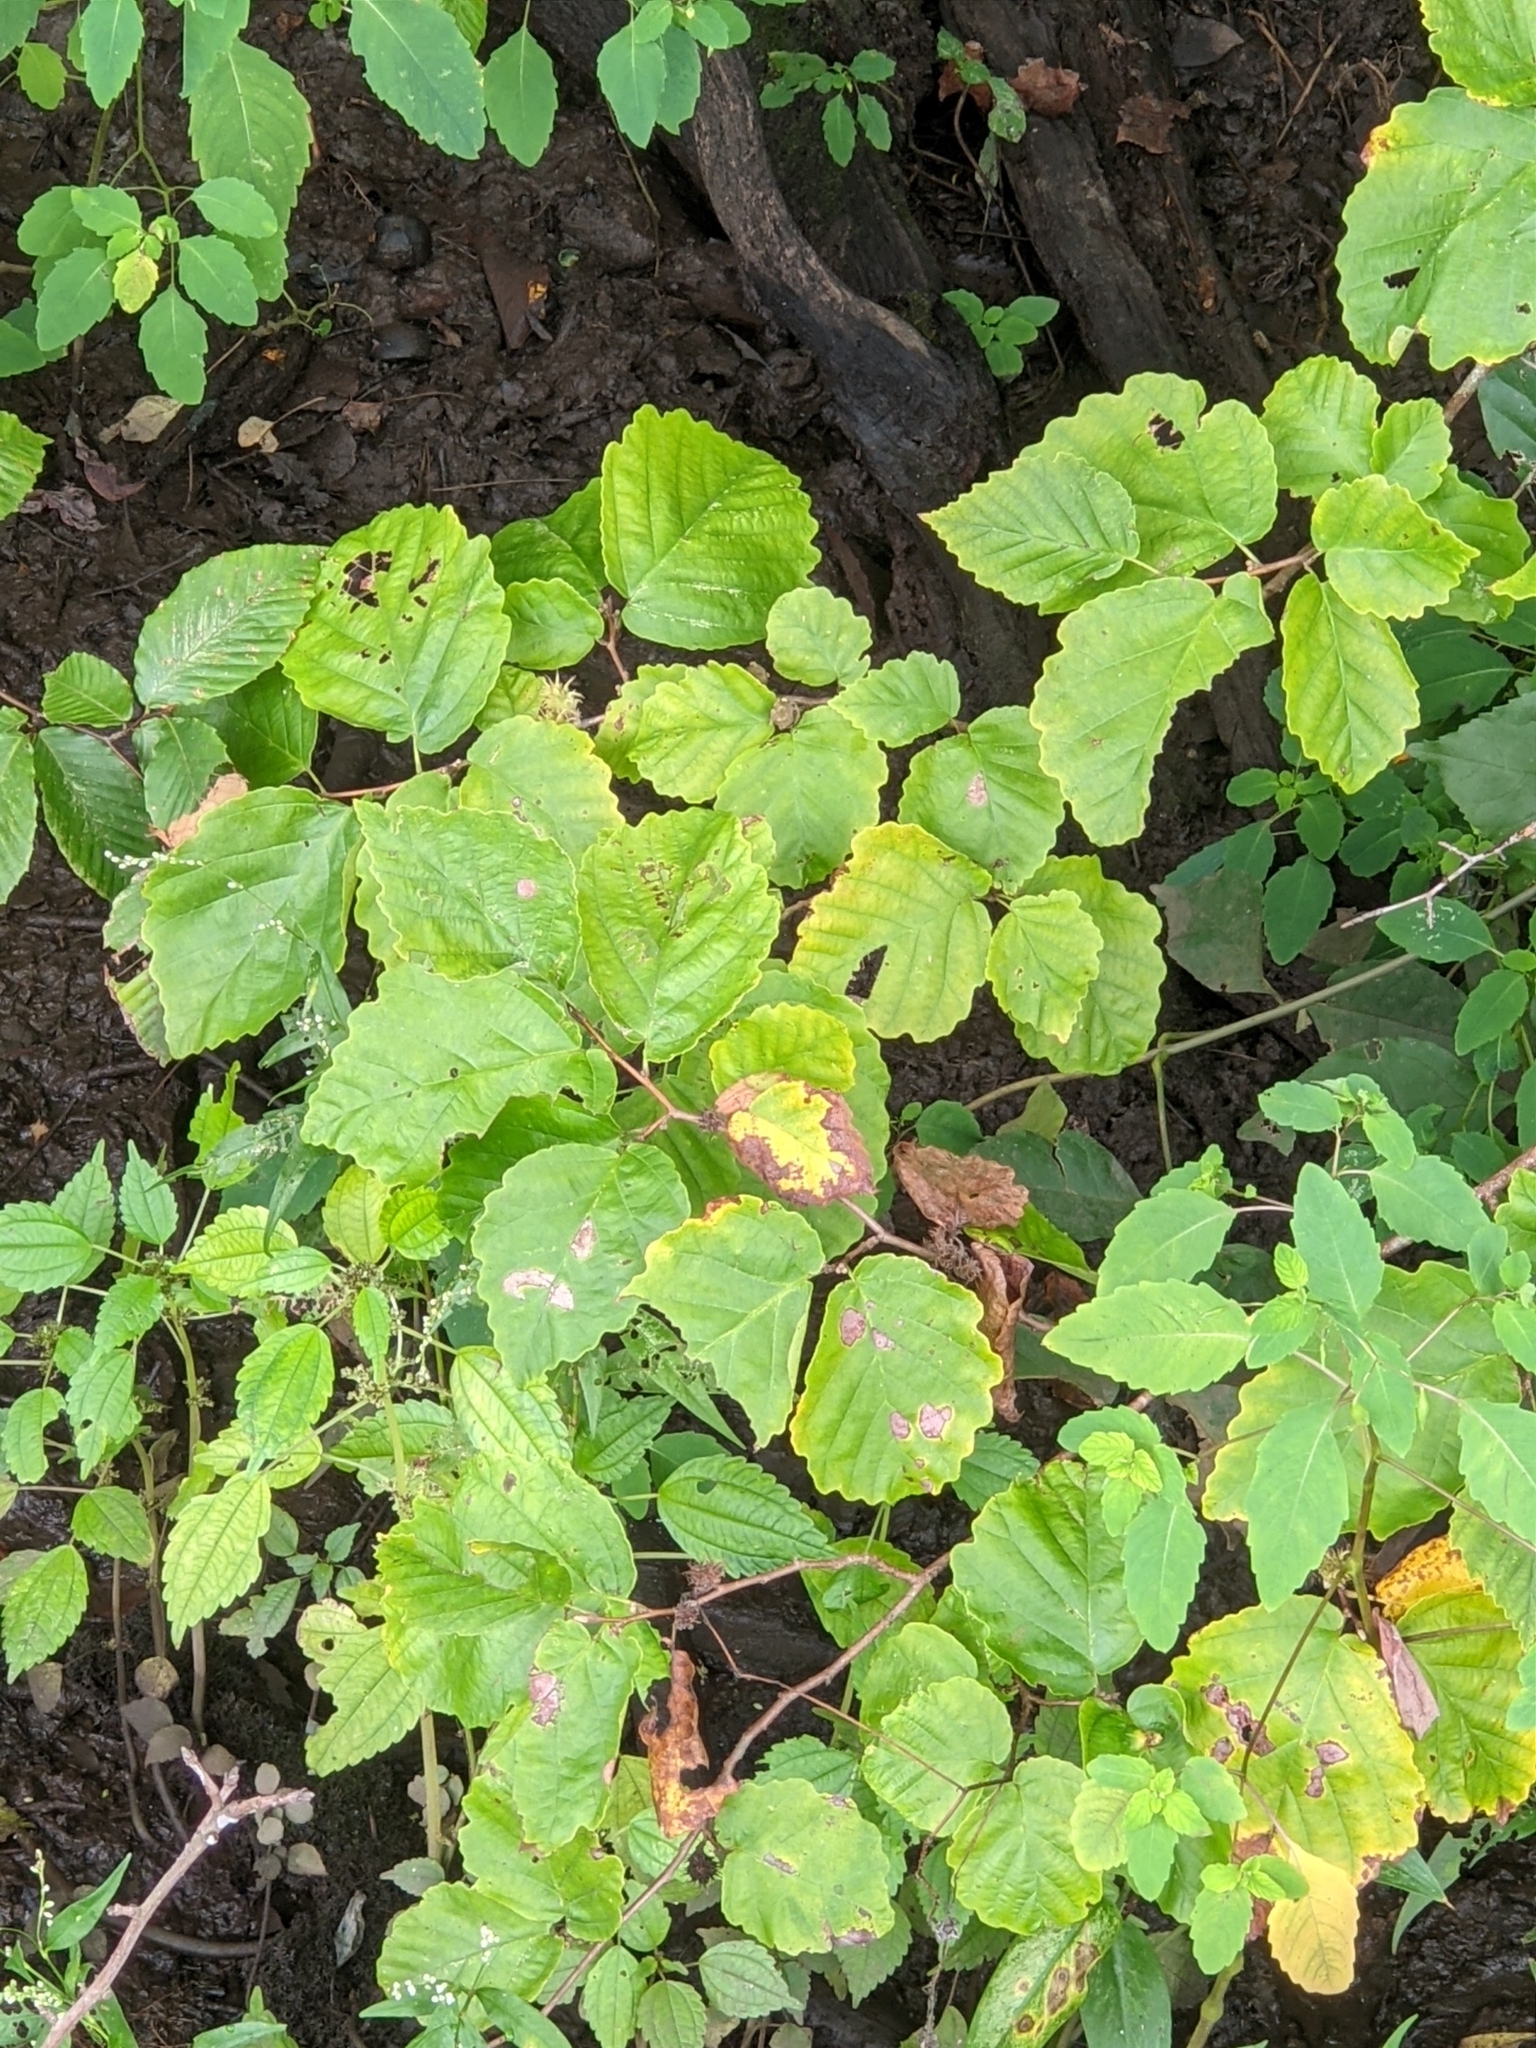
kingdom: Plantae
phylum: Tracheophyta
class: Magnoliopsida
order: Saxifragales
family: Hamamelidaceae
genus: Hamamelis
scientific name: Hamamelis virginiana
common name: Witch-hazel
